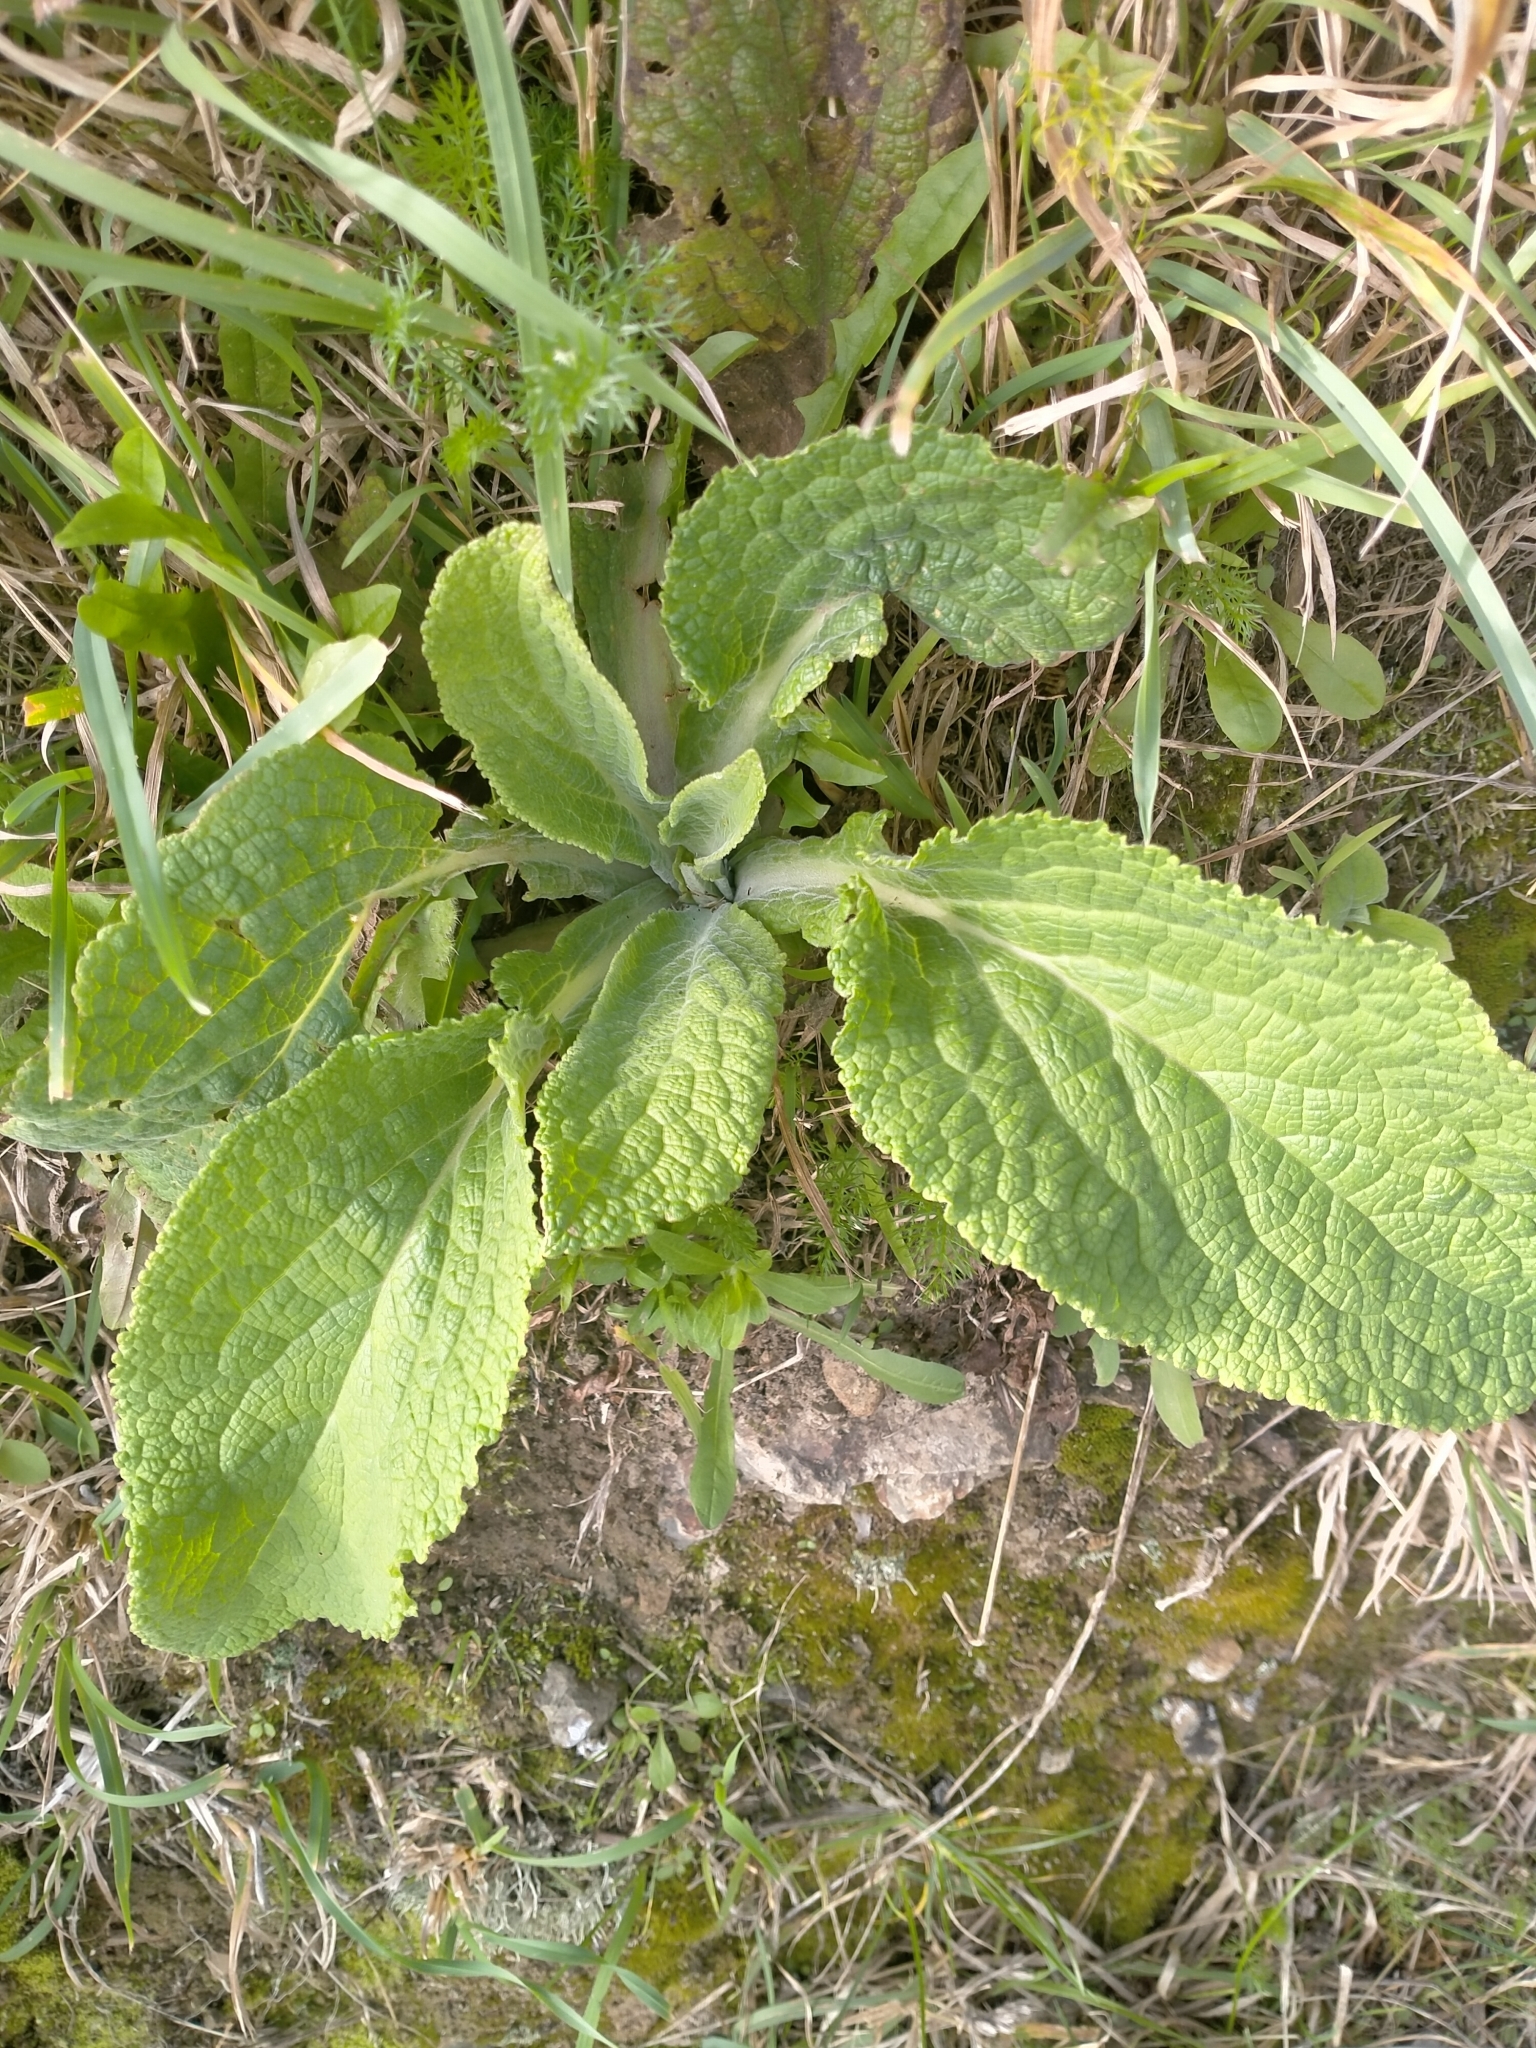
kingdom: Plantae
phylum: Tracheophyta
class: Magnoliopsida
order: Lamiales
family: Plantaginaceae
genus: Digitalis
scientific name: Digitalis purpurea
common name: Foxglove
